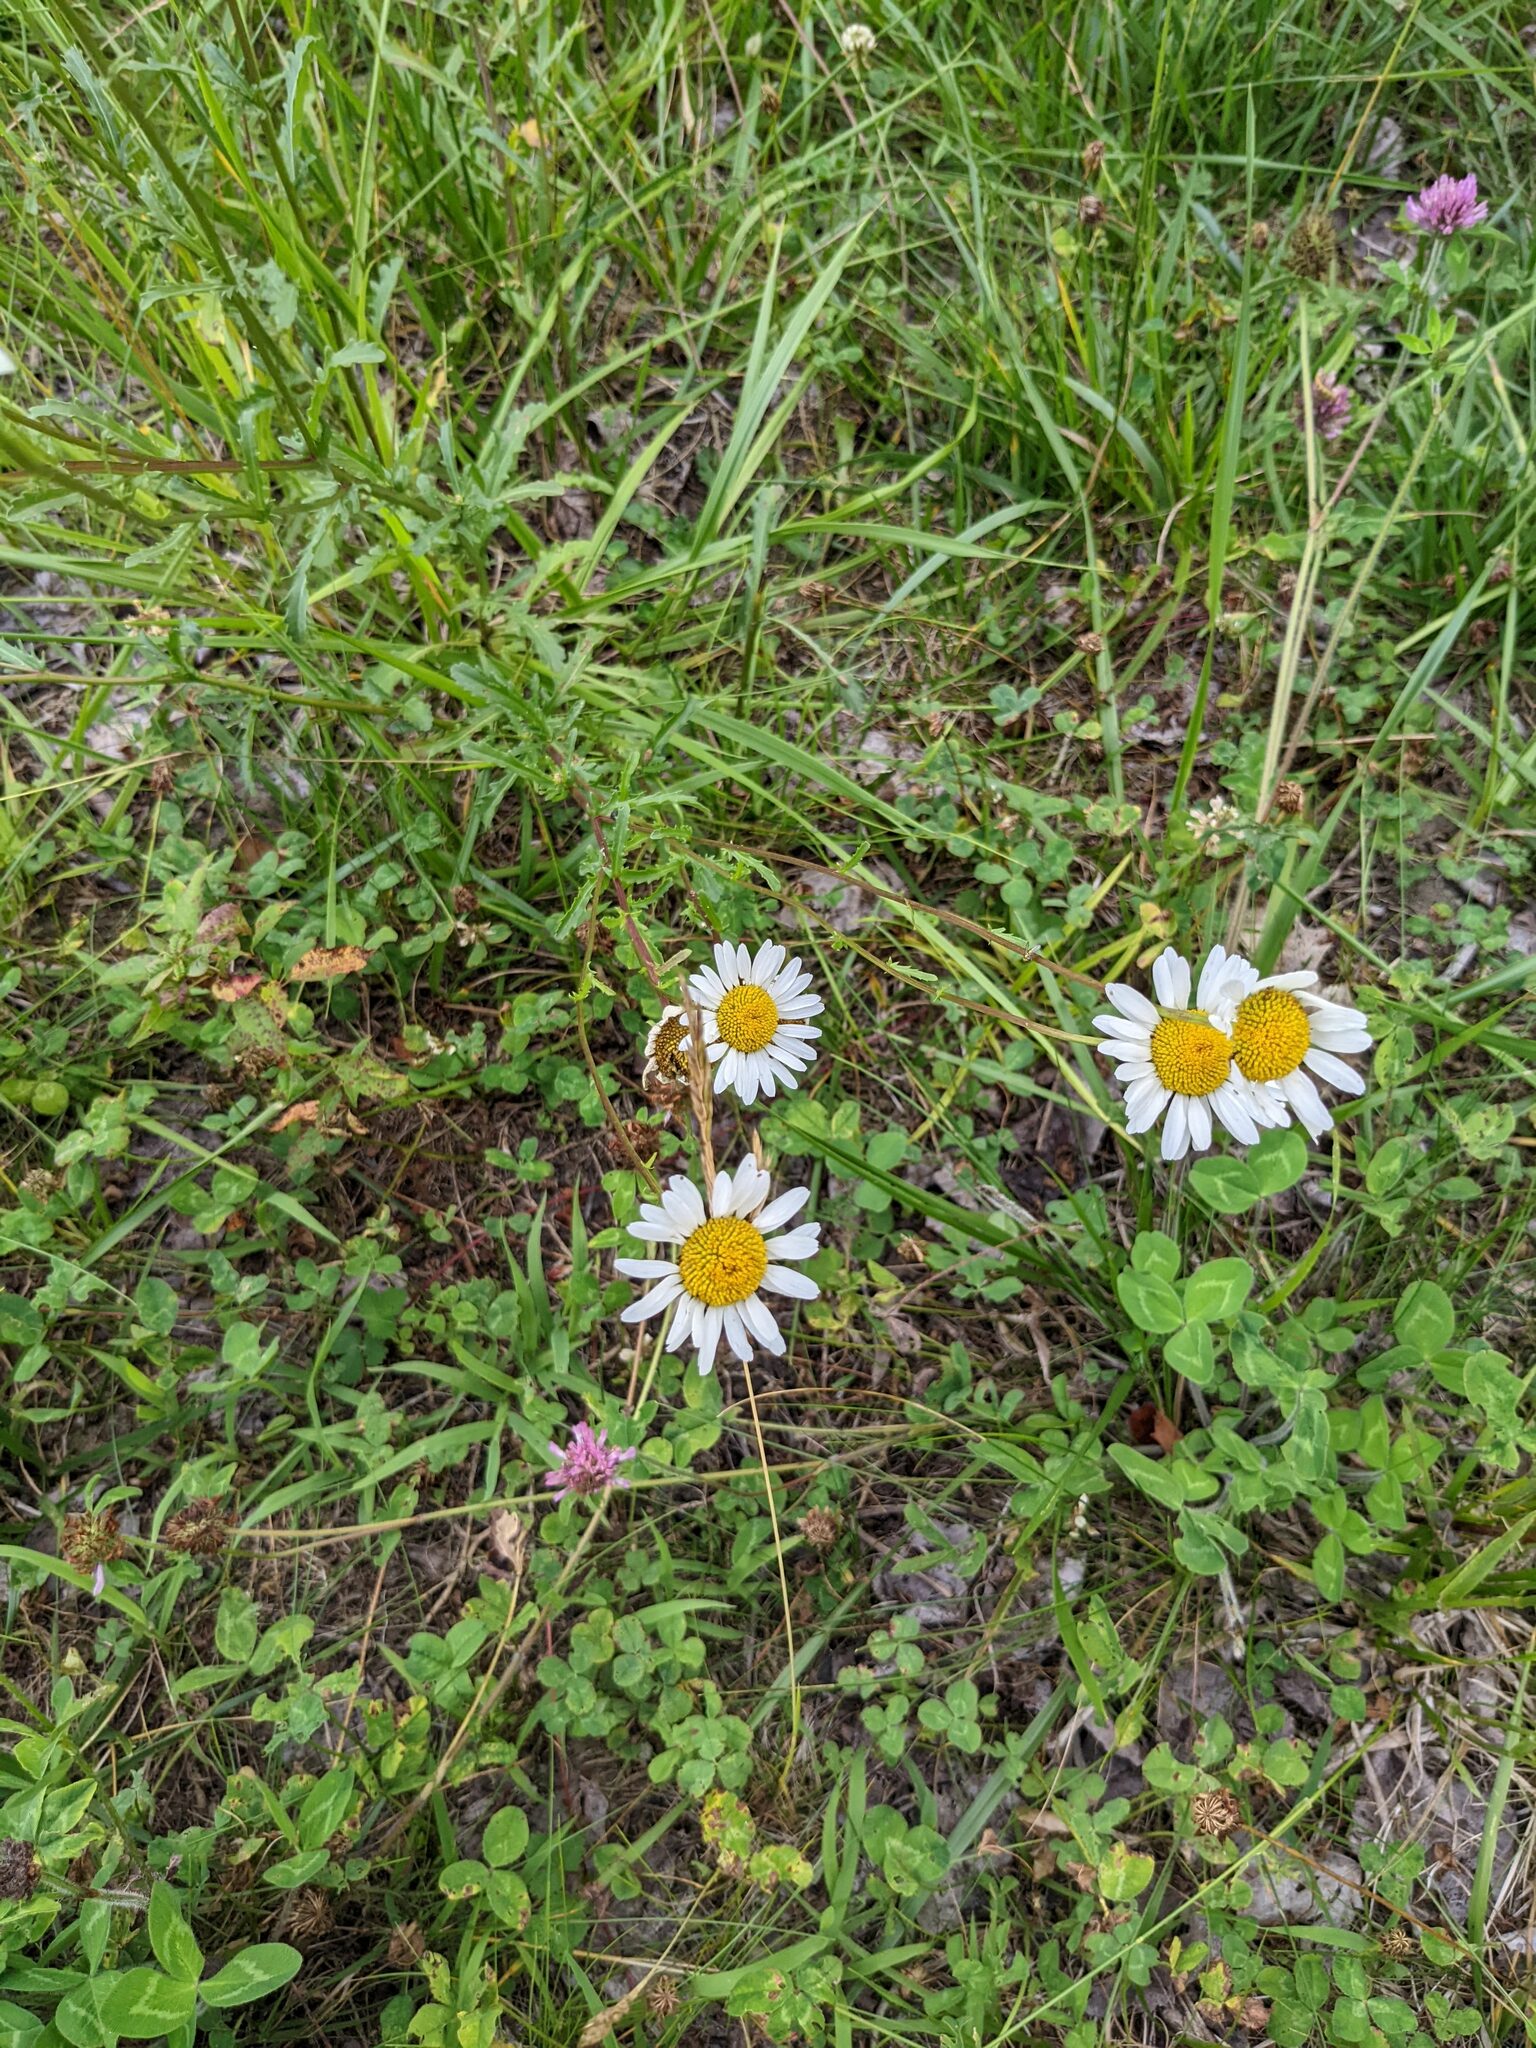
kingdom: Plantae
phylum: Tracheophyta
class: Magnoliopsida
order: Asterales
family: Asteraceae
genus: Leucanthemum
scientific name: Leucanthemum vulgare
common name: Oxeye daisy
